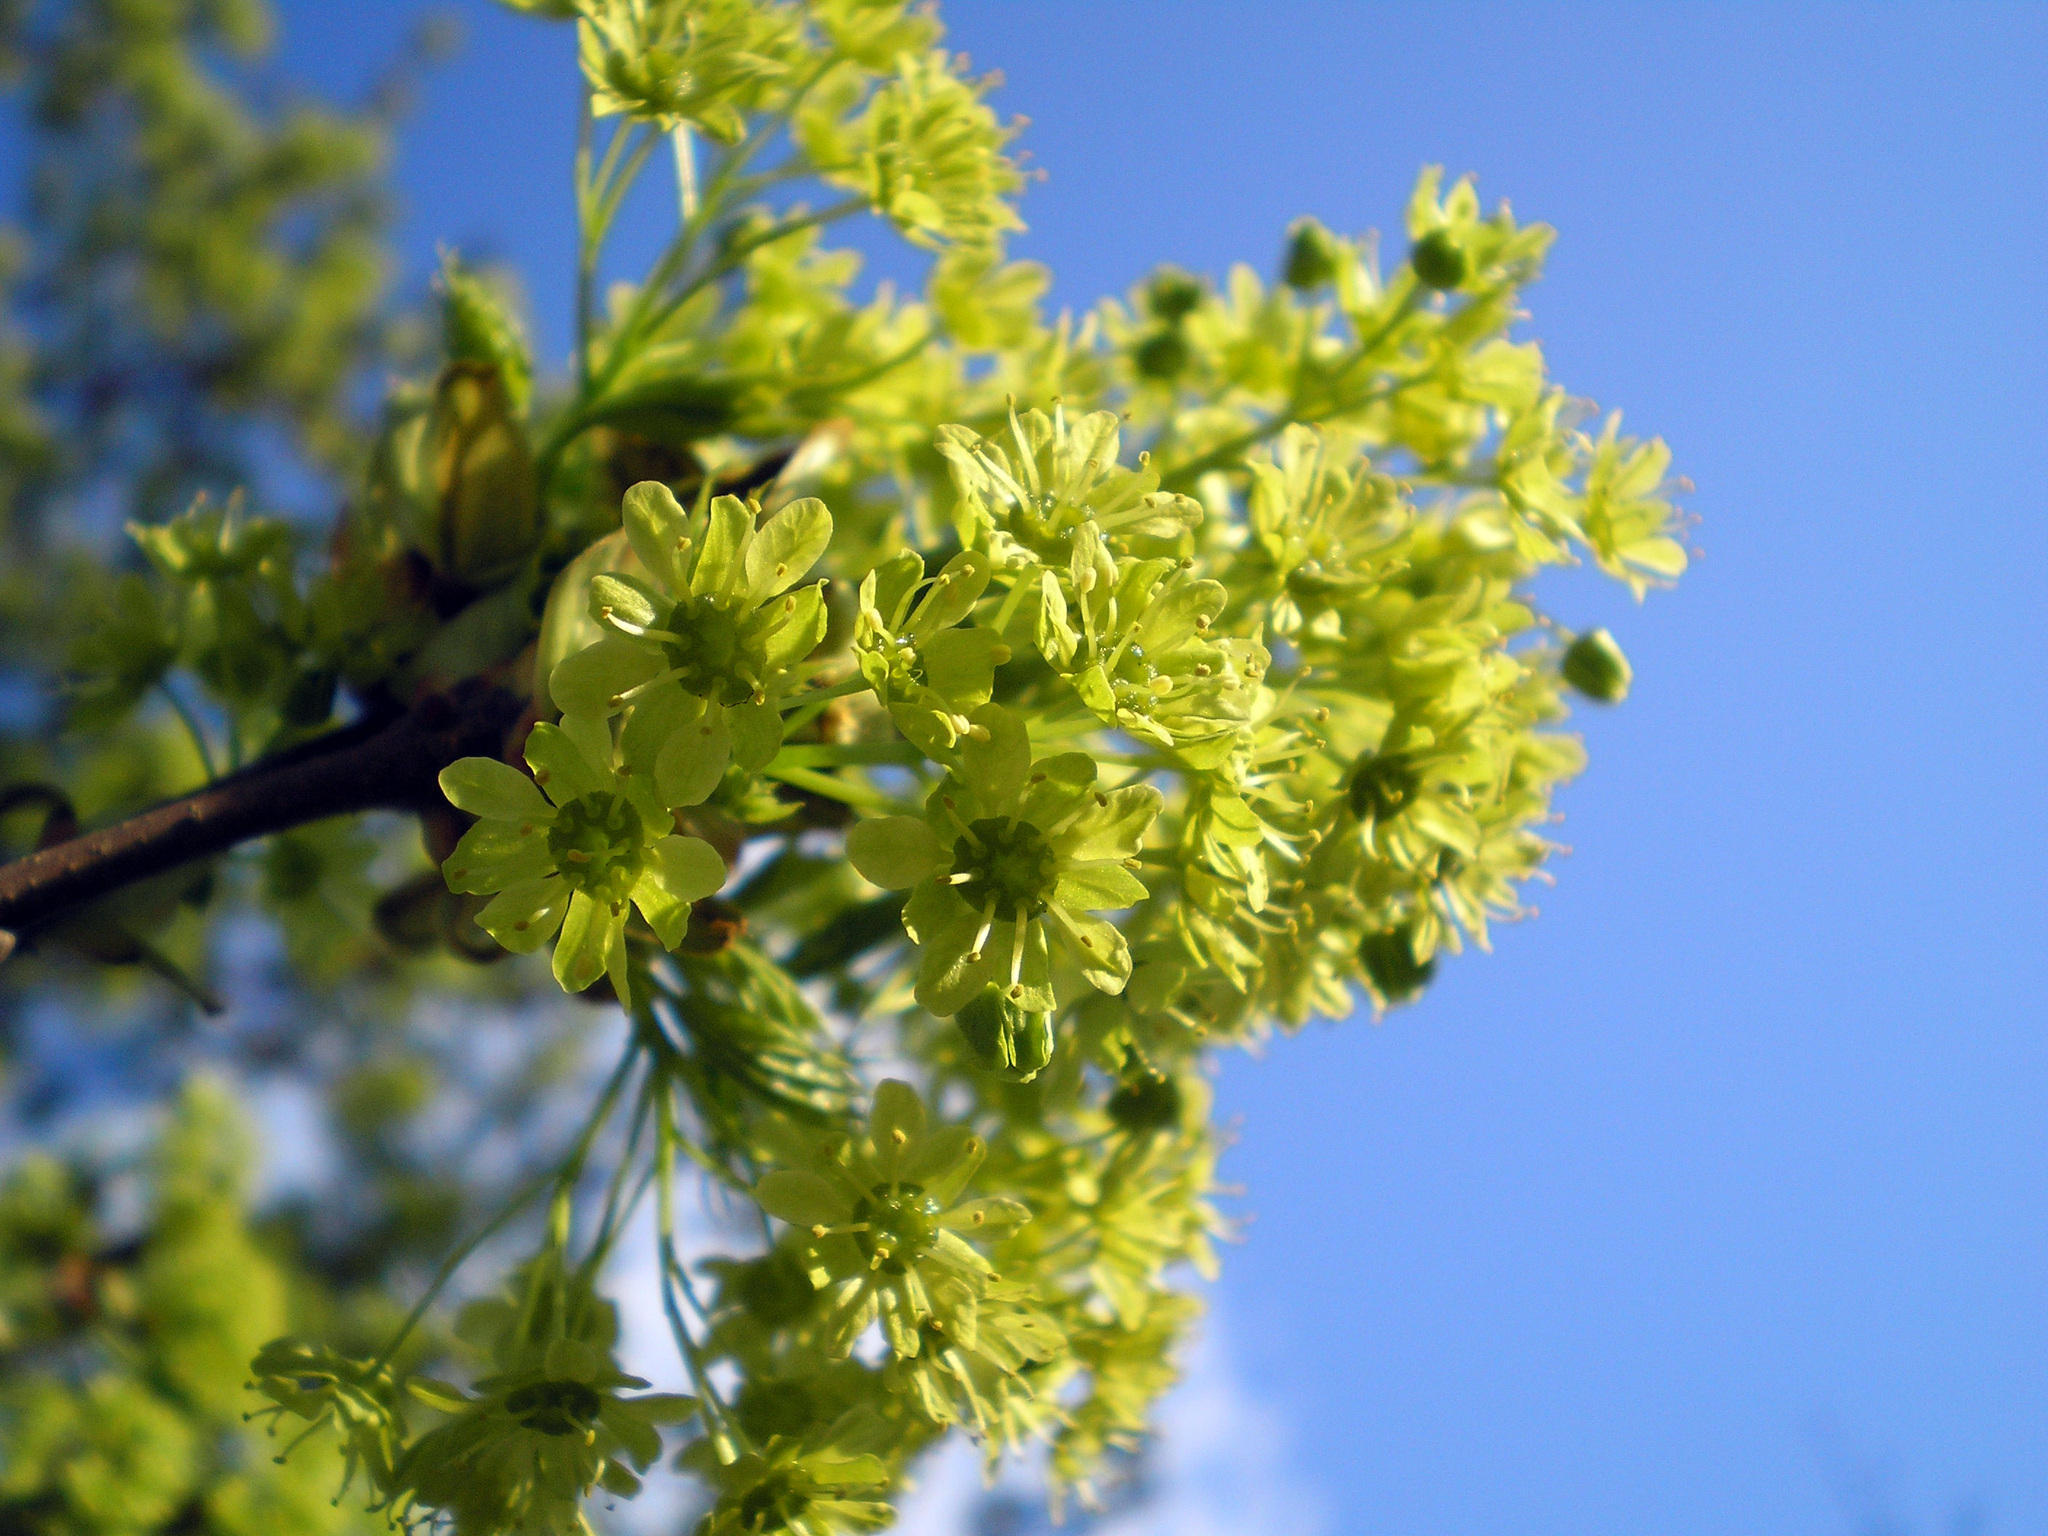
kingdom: Plantae
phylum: Tracheophyta
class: Magnoliopsida
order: Sapindales
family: Sapindaceae
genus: Acer
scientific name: Acer platanoides
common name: Norway maple
